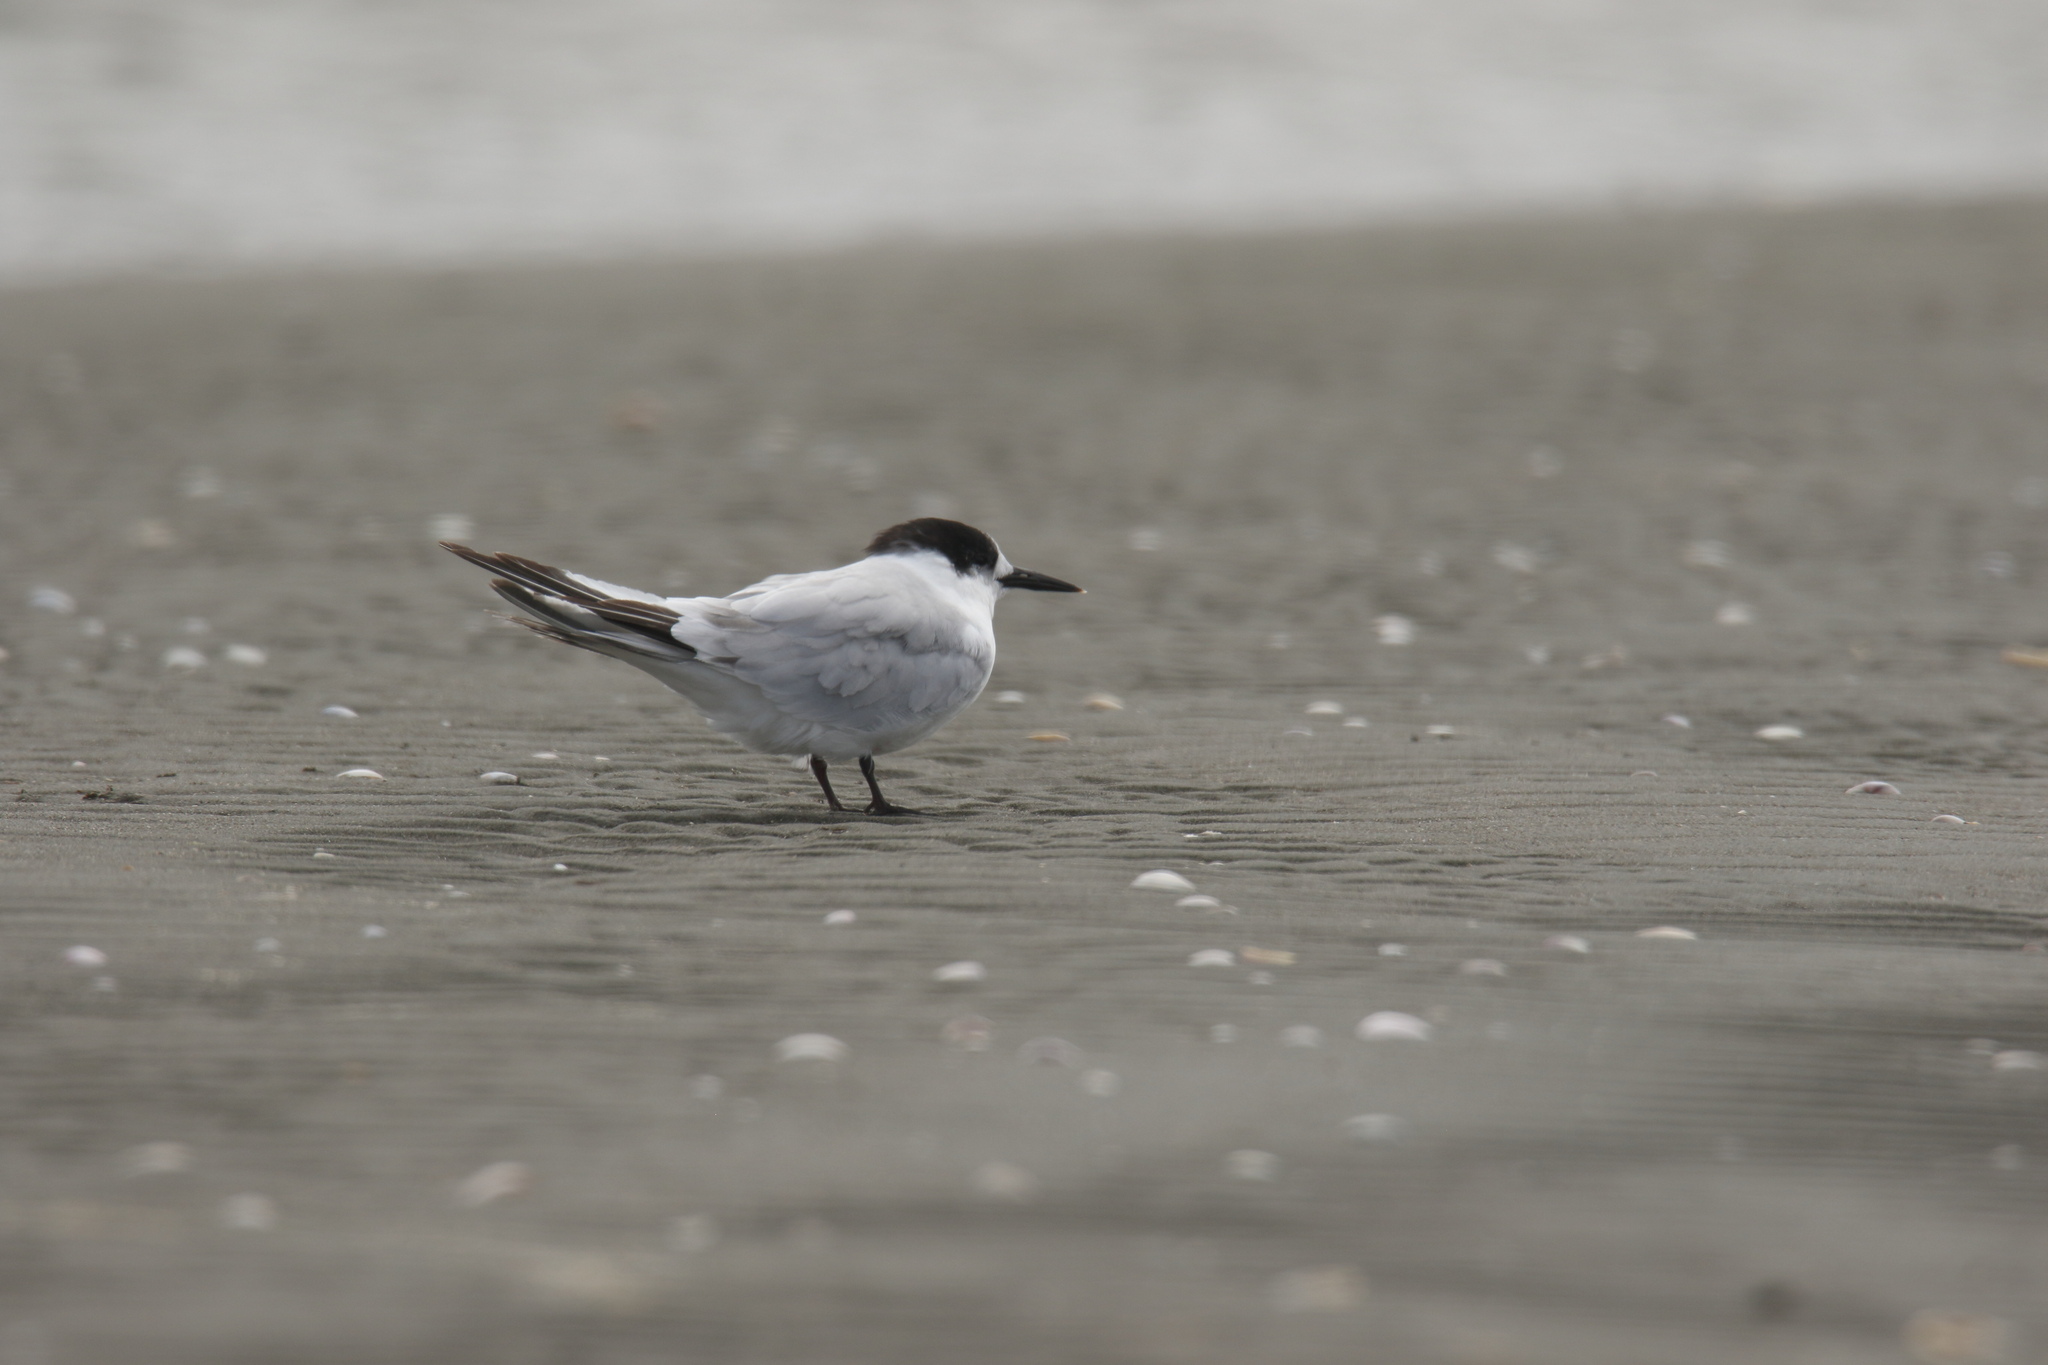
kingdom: Animalia
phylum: Chordata
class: Aves
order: Charadriiformes
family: Laridae
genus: Sternula
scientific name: Sternula albifrons
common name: Little tern
